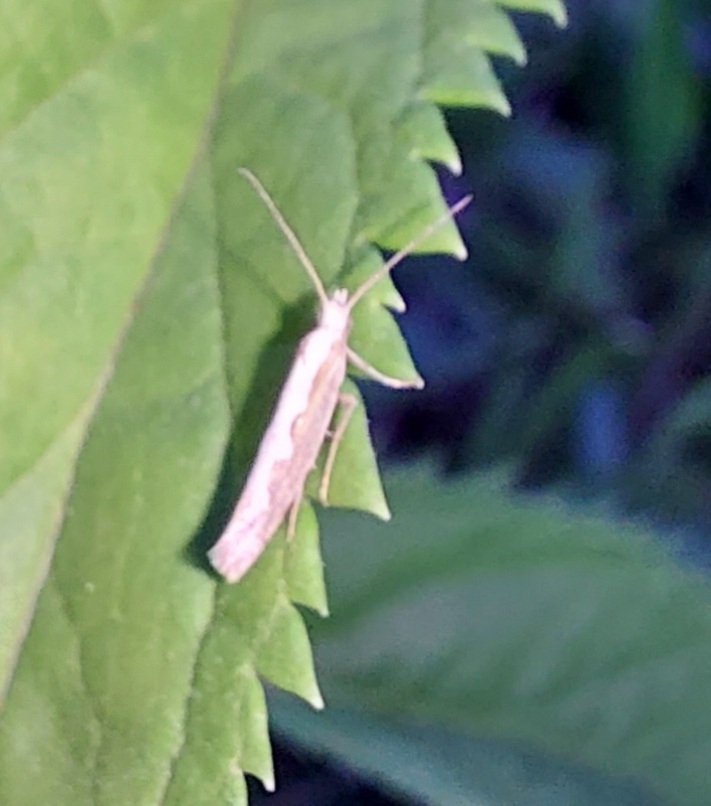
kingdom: Animalia
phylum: Arthropoda
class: Insecta
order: Lepidoptera
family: Plutellidae
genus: Plutella
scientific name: Plutella xylostella
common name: Diamond-back moth
